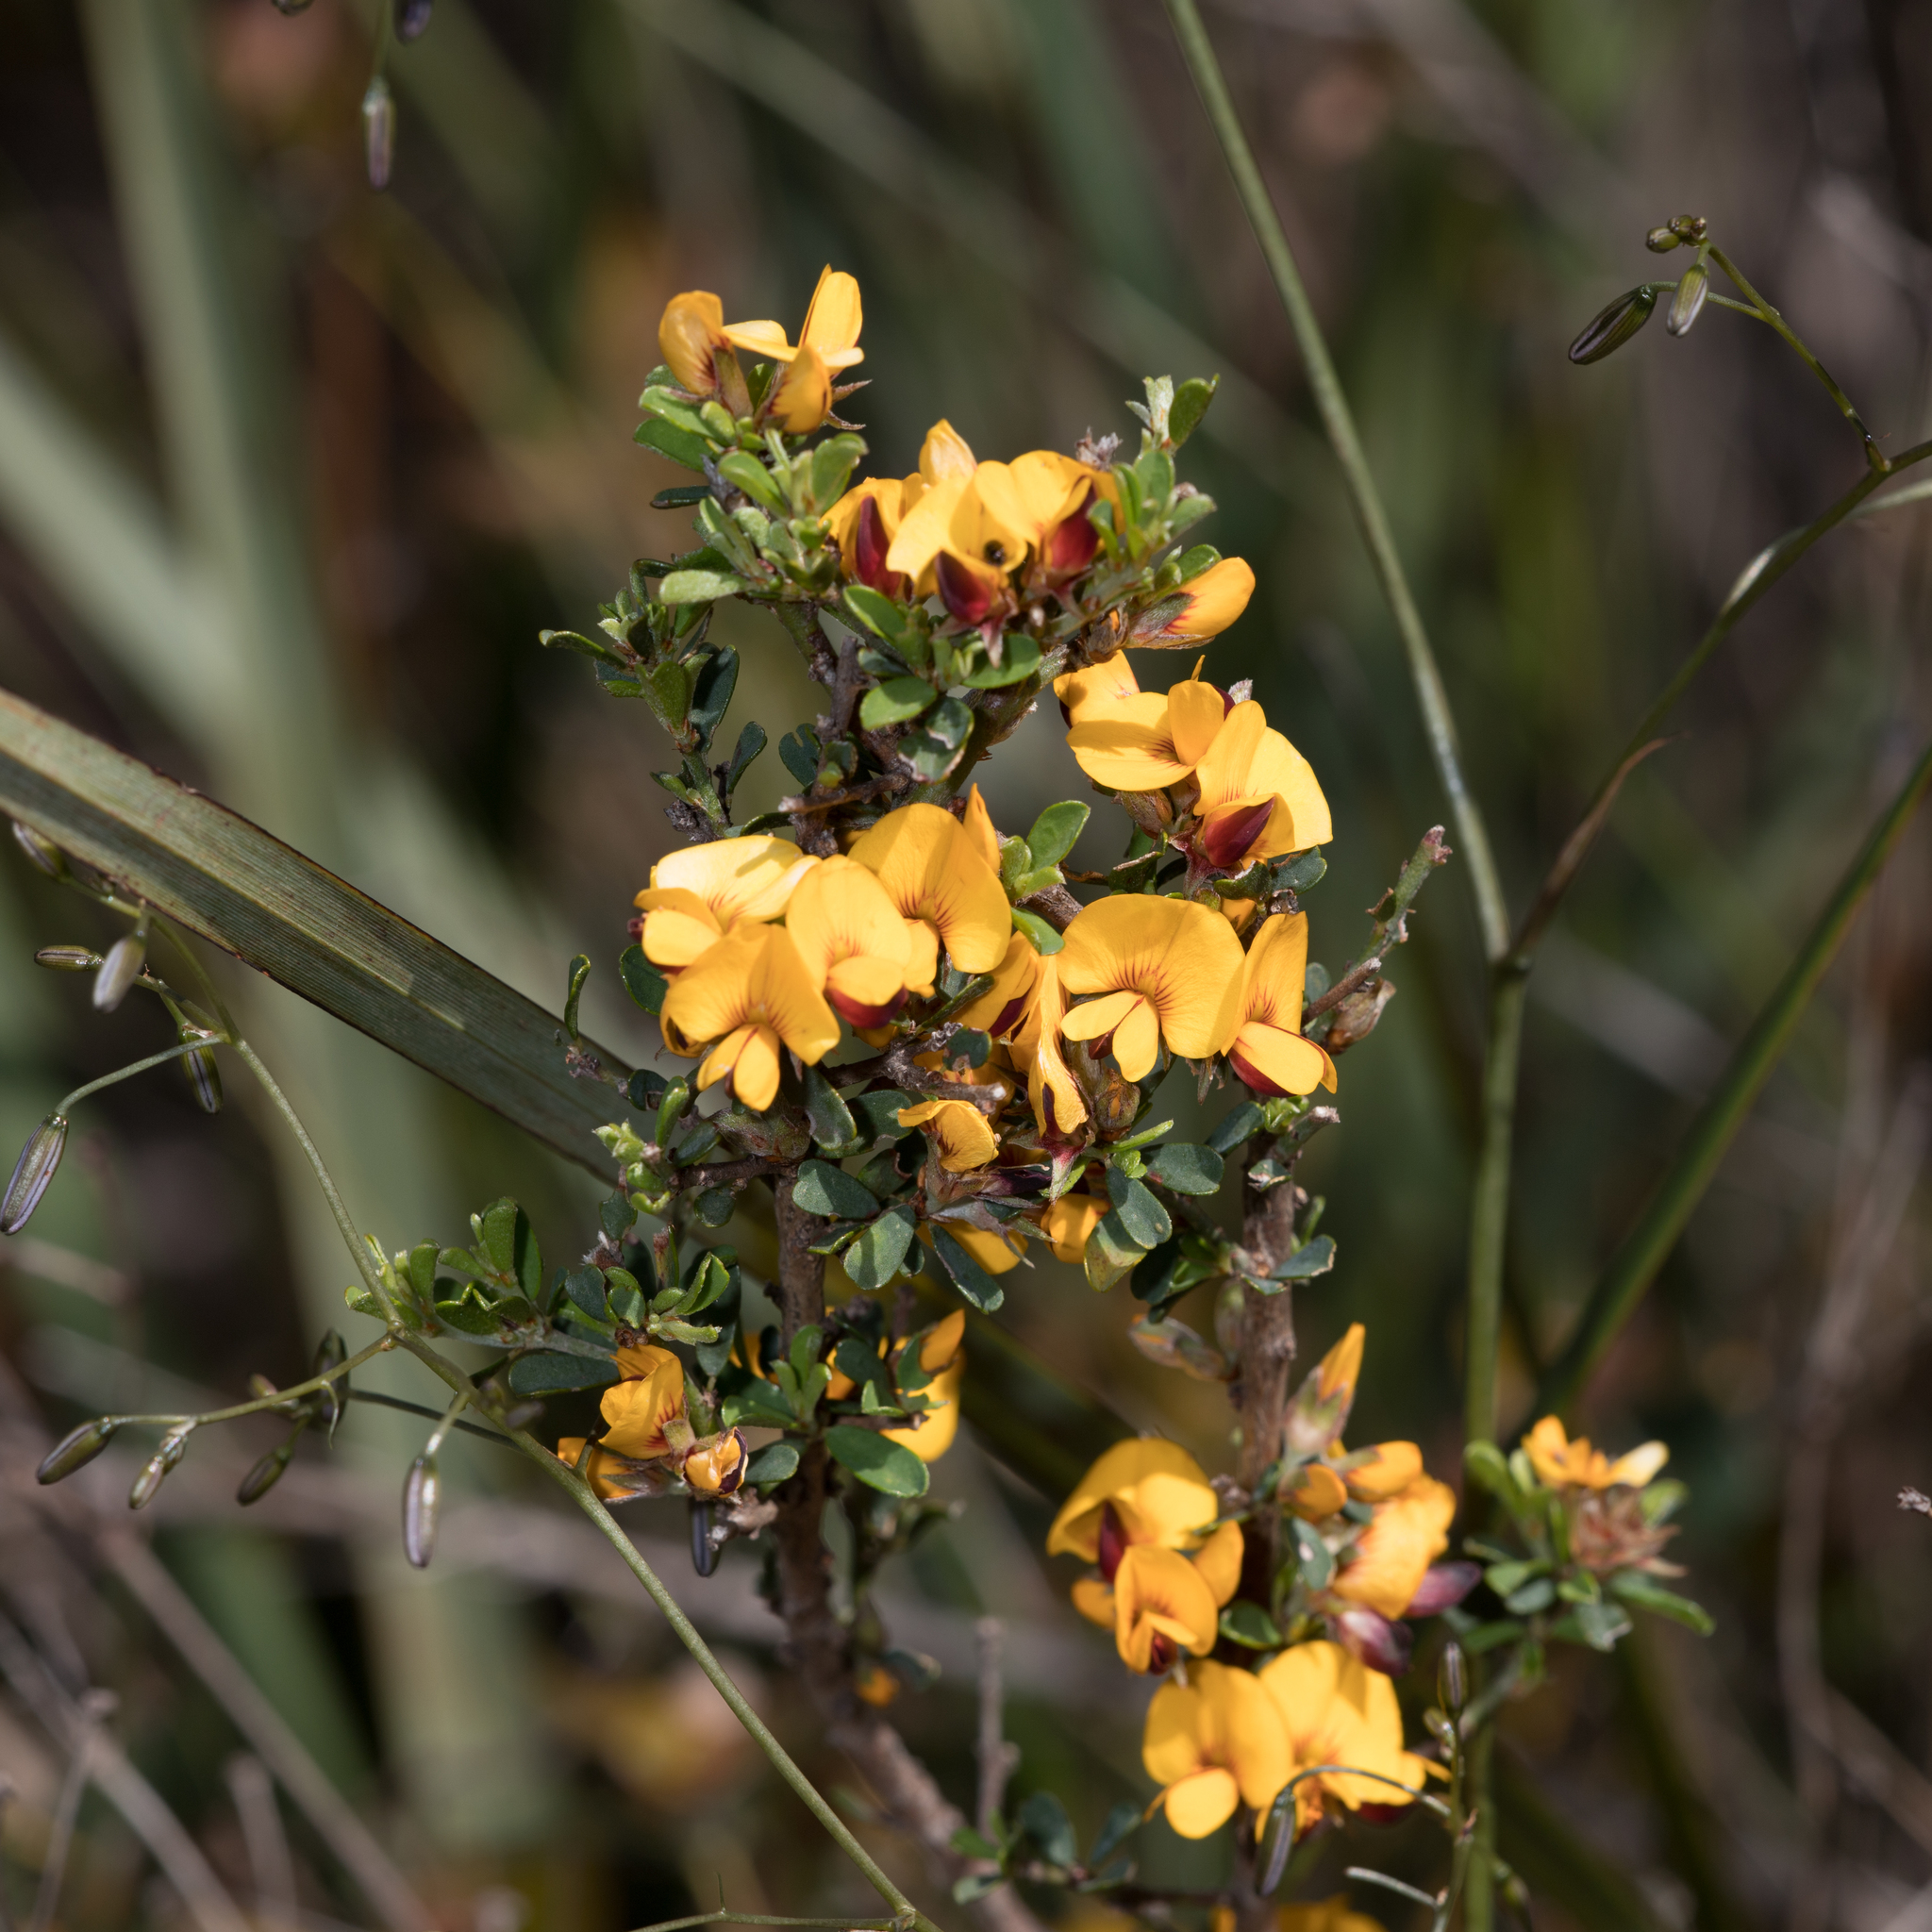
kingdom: Plantae
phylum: Tracheophyta
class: Magnoliopsida
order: Fabales
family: Fabaceae
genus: Pultenaea
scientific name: Pultenaea largiflorens
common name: Twiggy bush-pea
